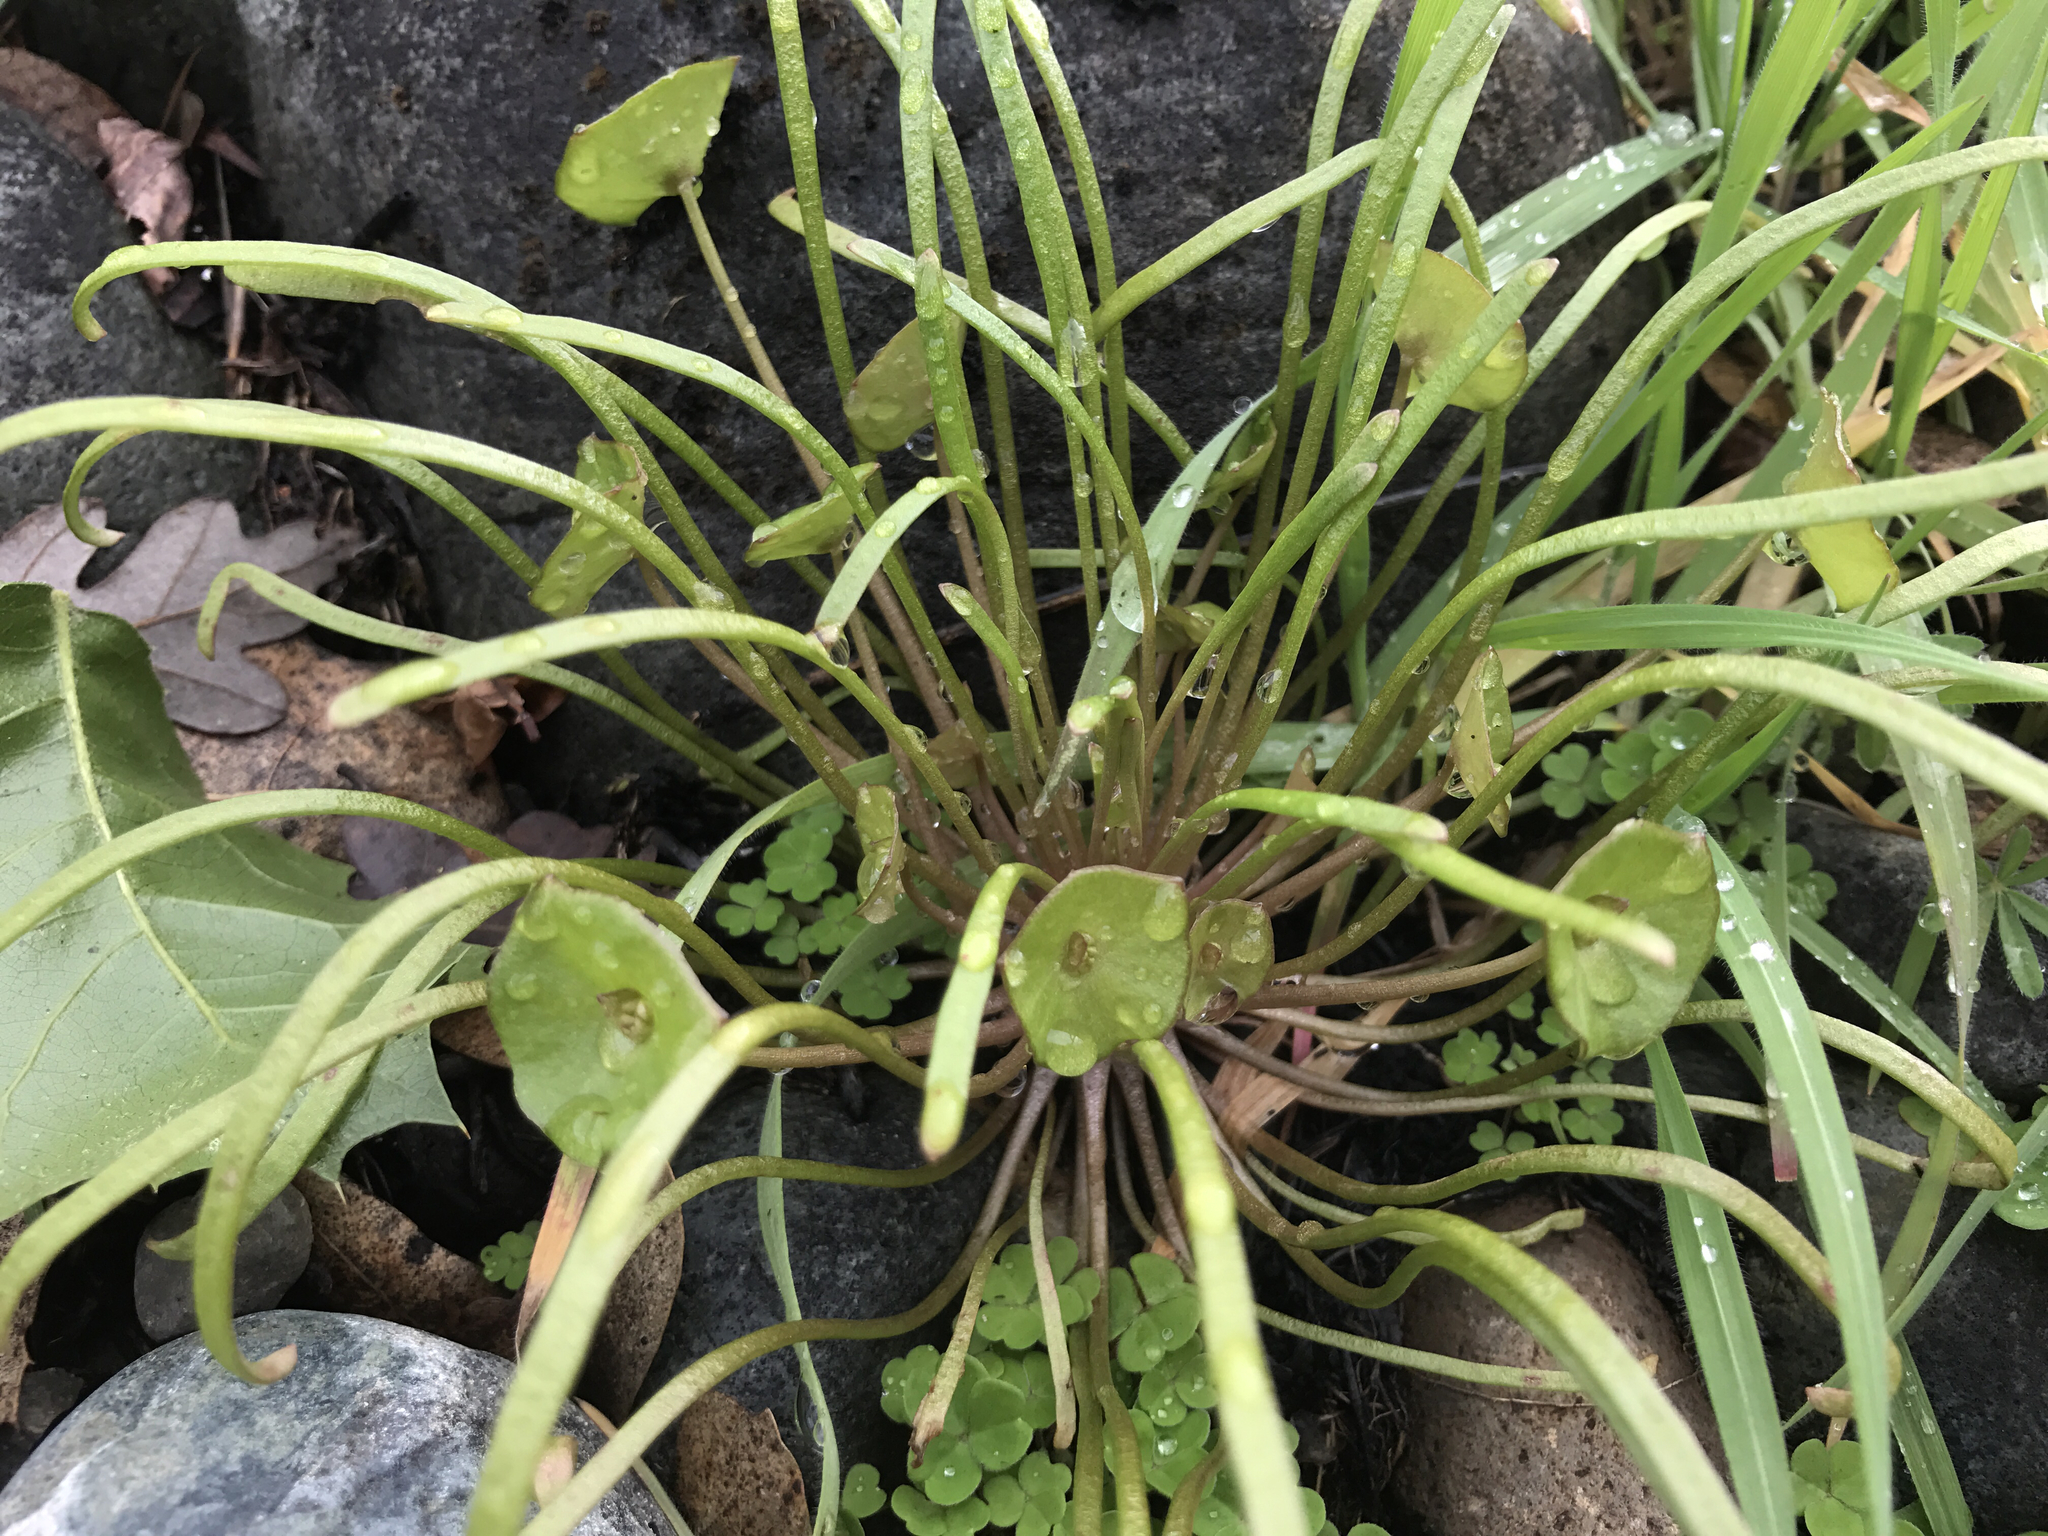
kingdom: Plantae
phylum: Tracheophyta
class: Magnoliopsida
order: Caryophyllales
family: Montiaceae
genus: Claytonia
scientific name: Claytonia parviflora
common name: Indian-lettuce
